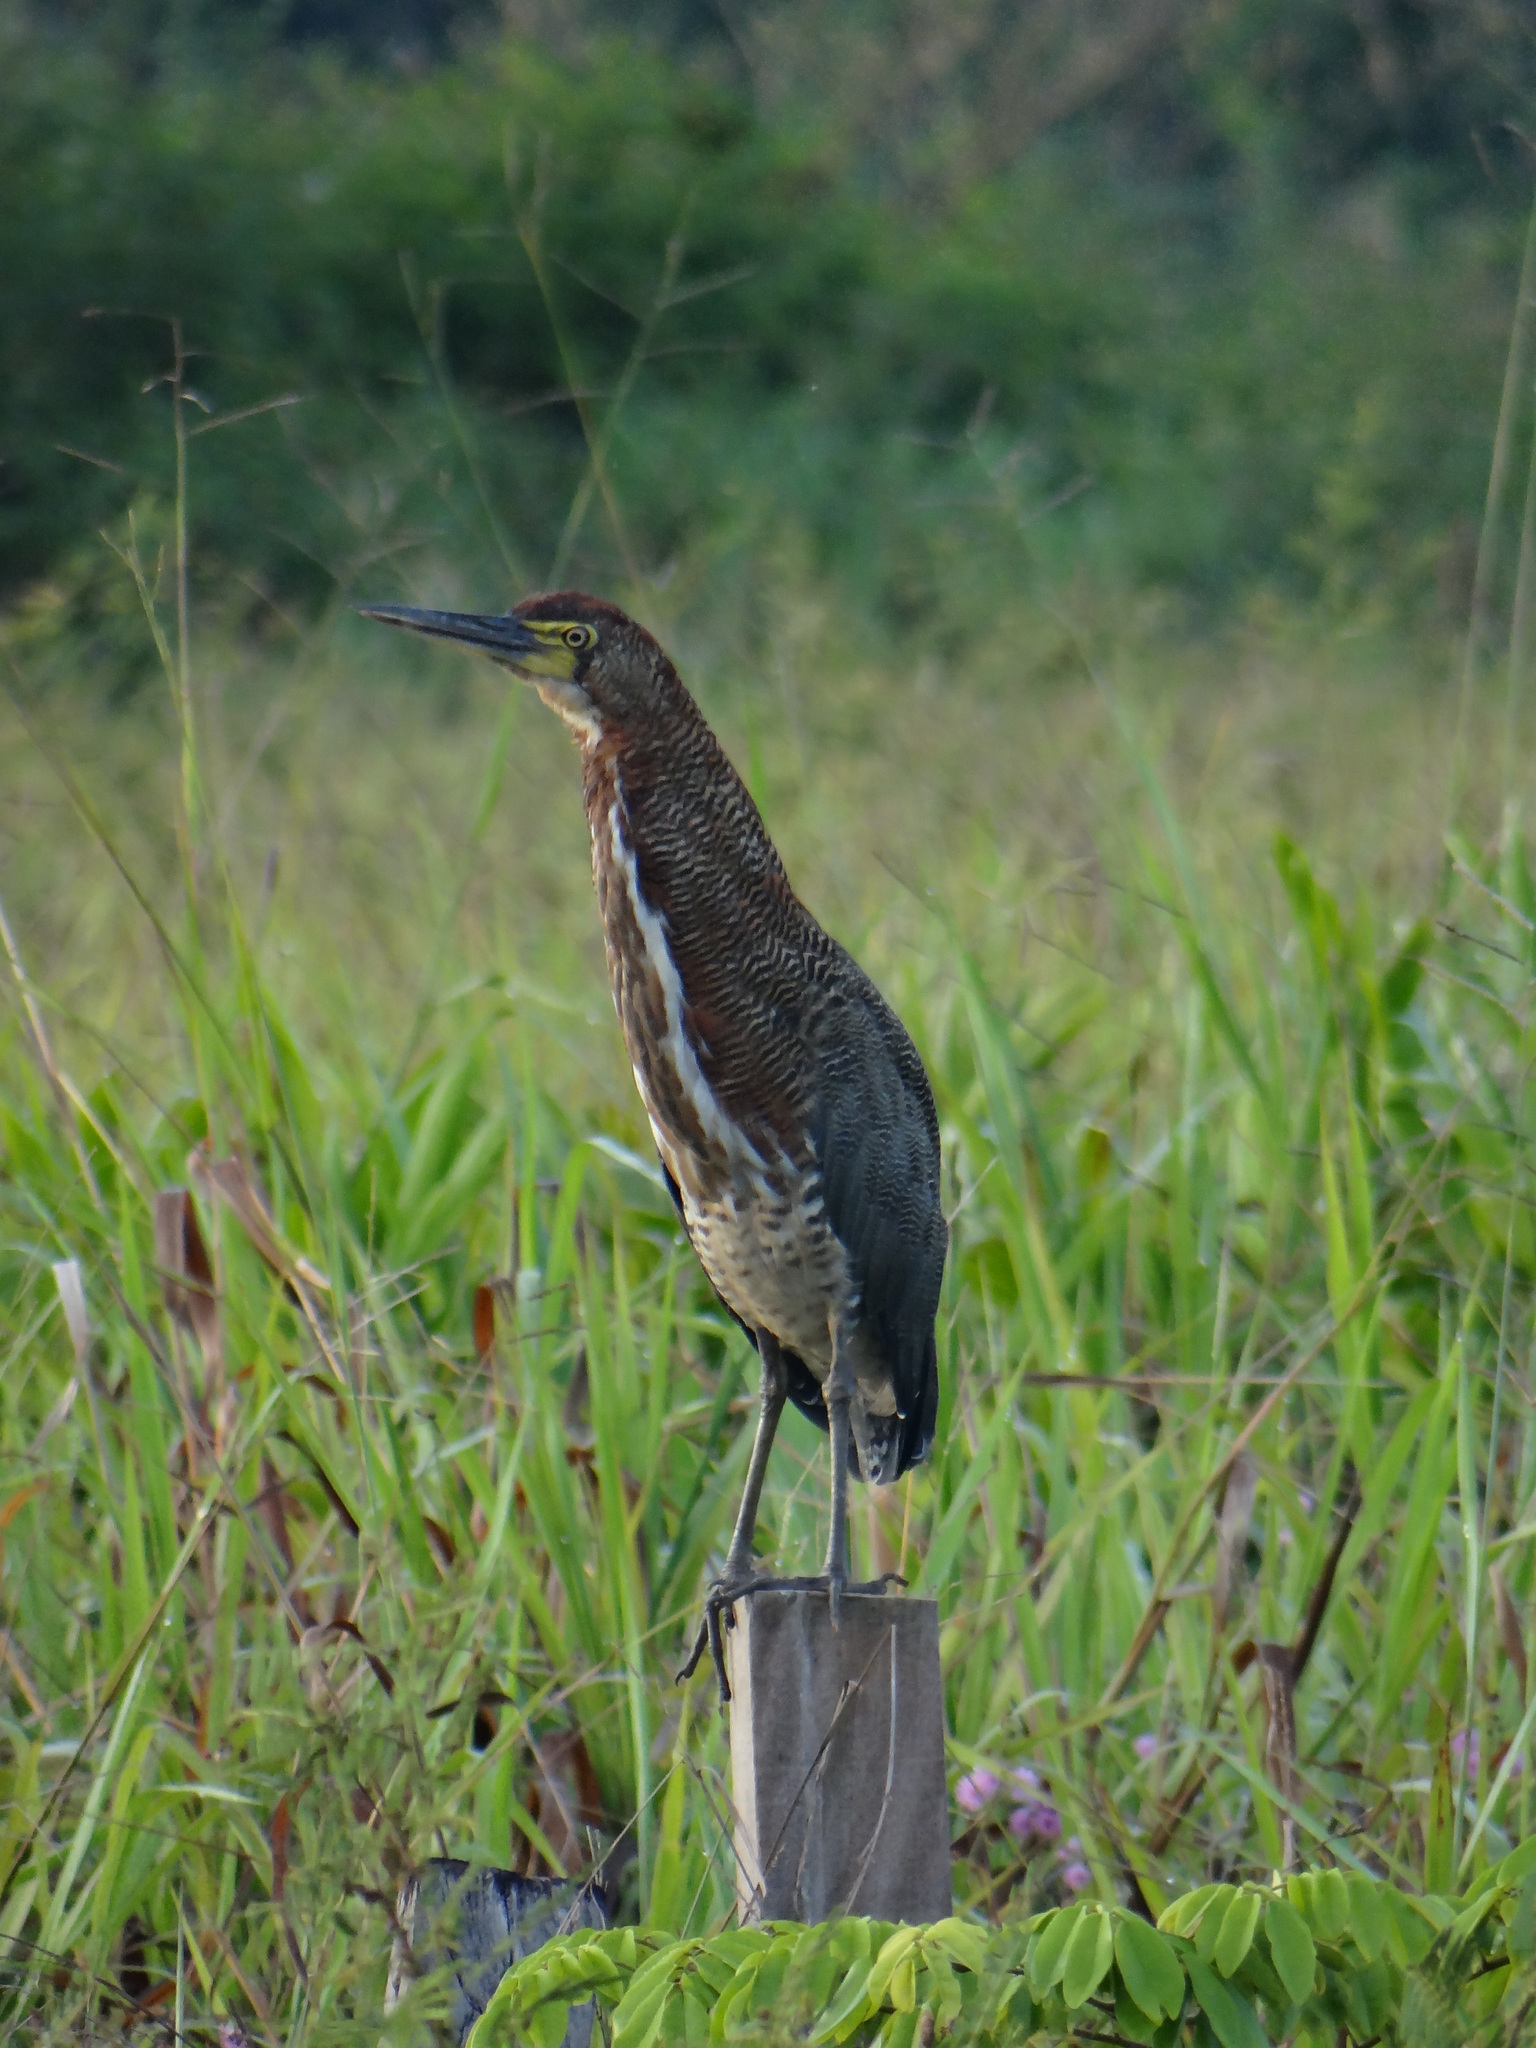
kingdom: Animalia
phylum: Chordata
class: Aves
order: Pelecaniformes
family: Ardeidae
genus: Tigrisoma
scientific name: Tigrisoma lineatum
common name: Rufescent tiger-heron
